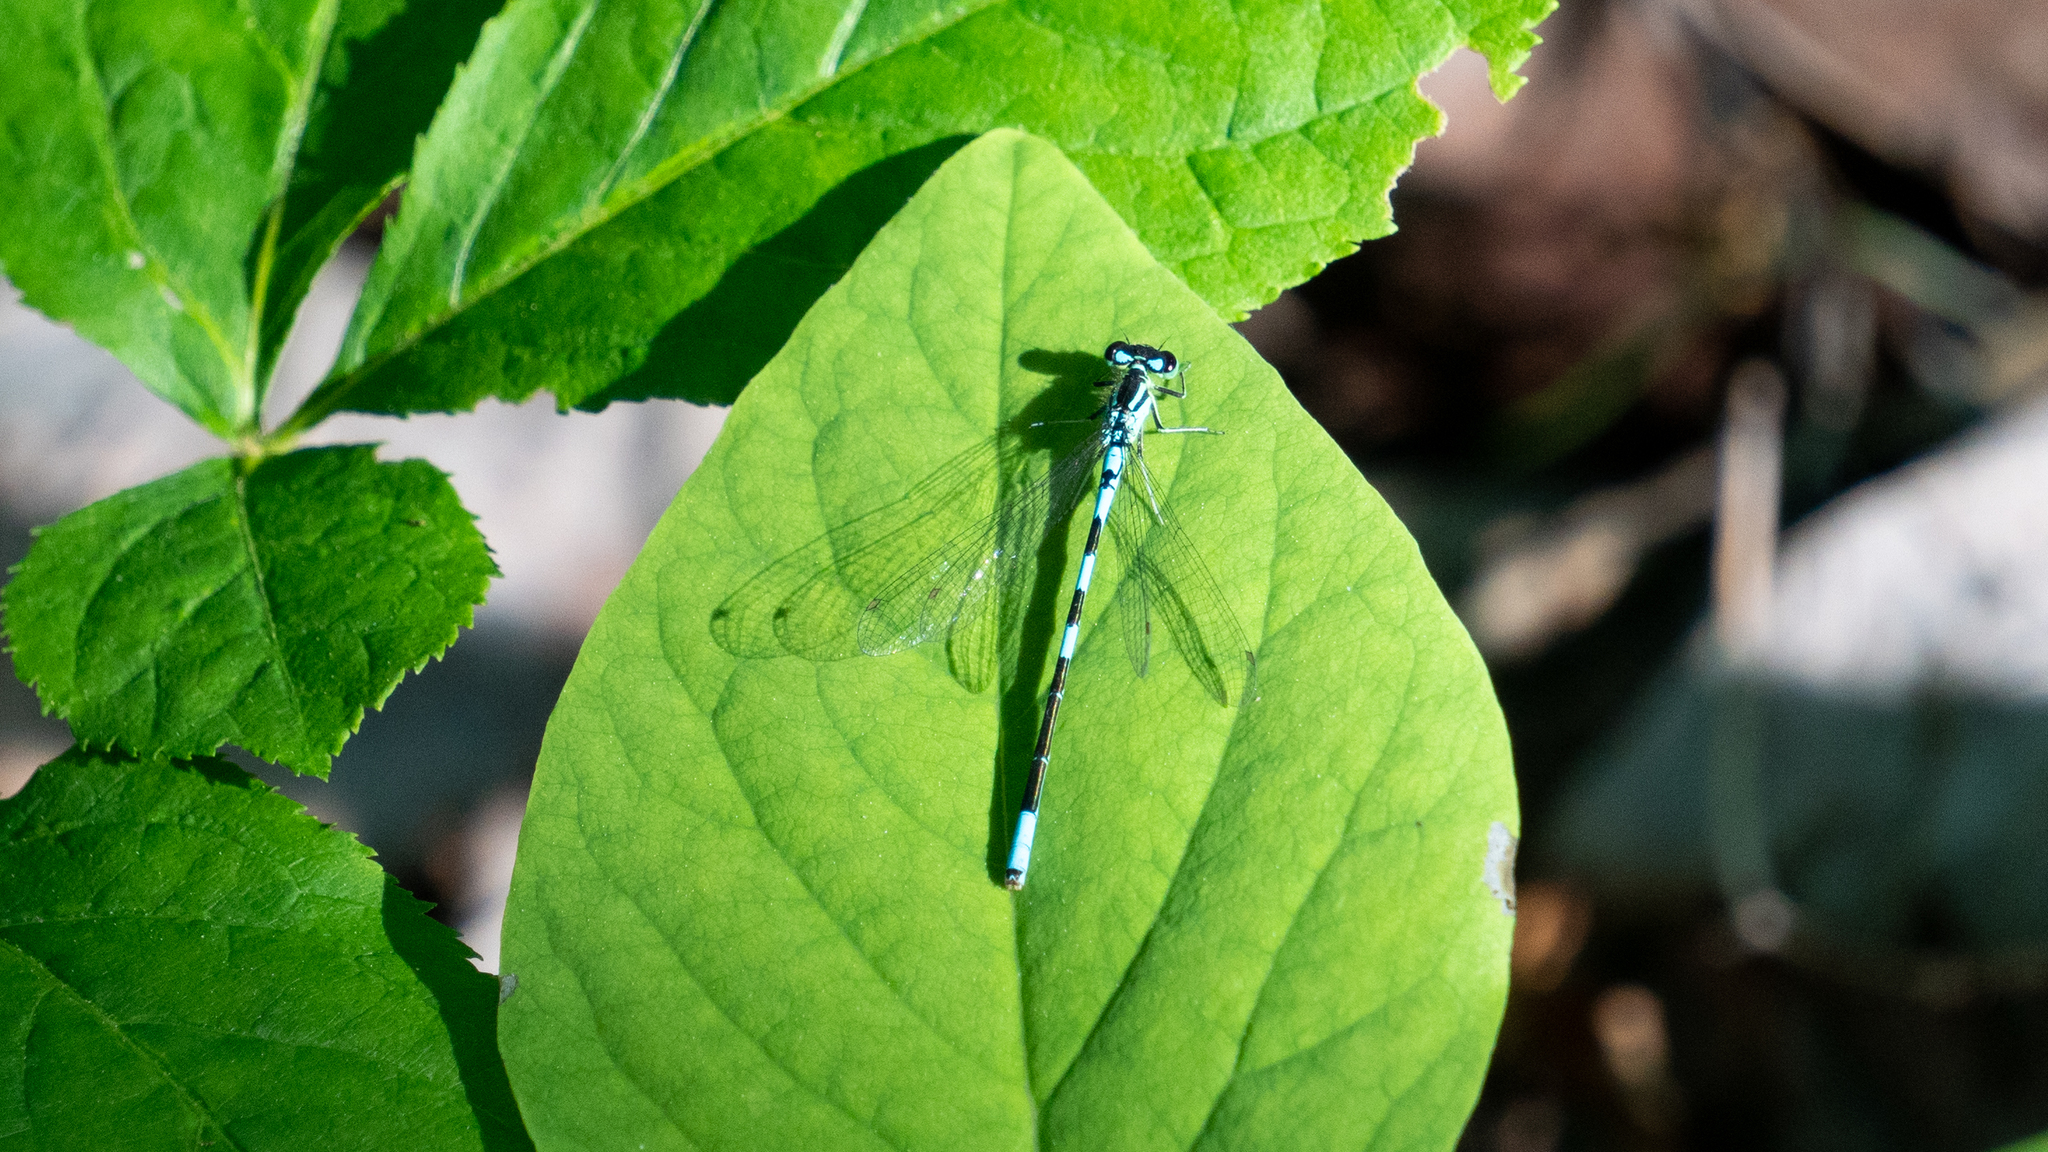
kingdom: Animalia
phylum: Arthropoda
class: Insecta
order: Odonata
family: Coenagrionidae
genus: Coenagrion
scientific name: Coenagrion resolutum
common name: Taiga bluet
